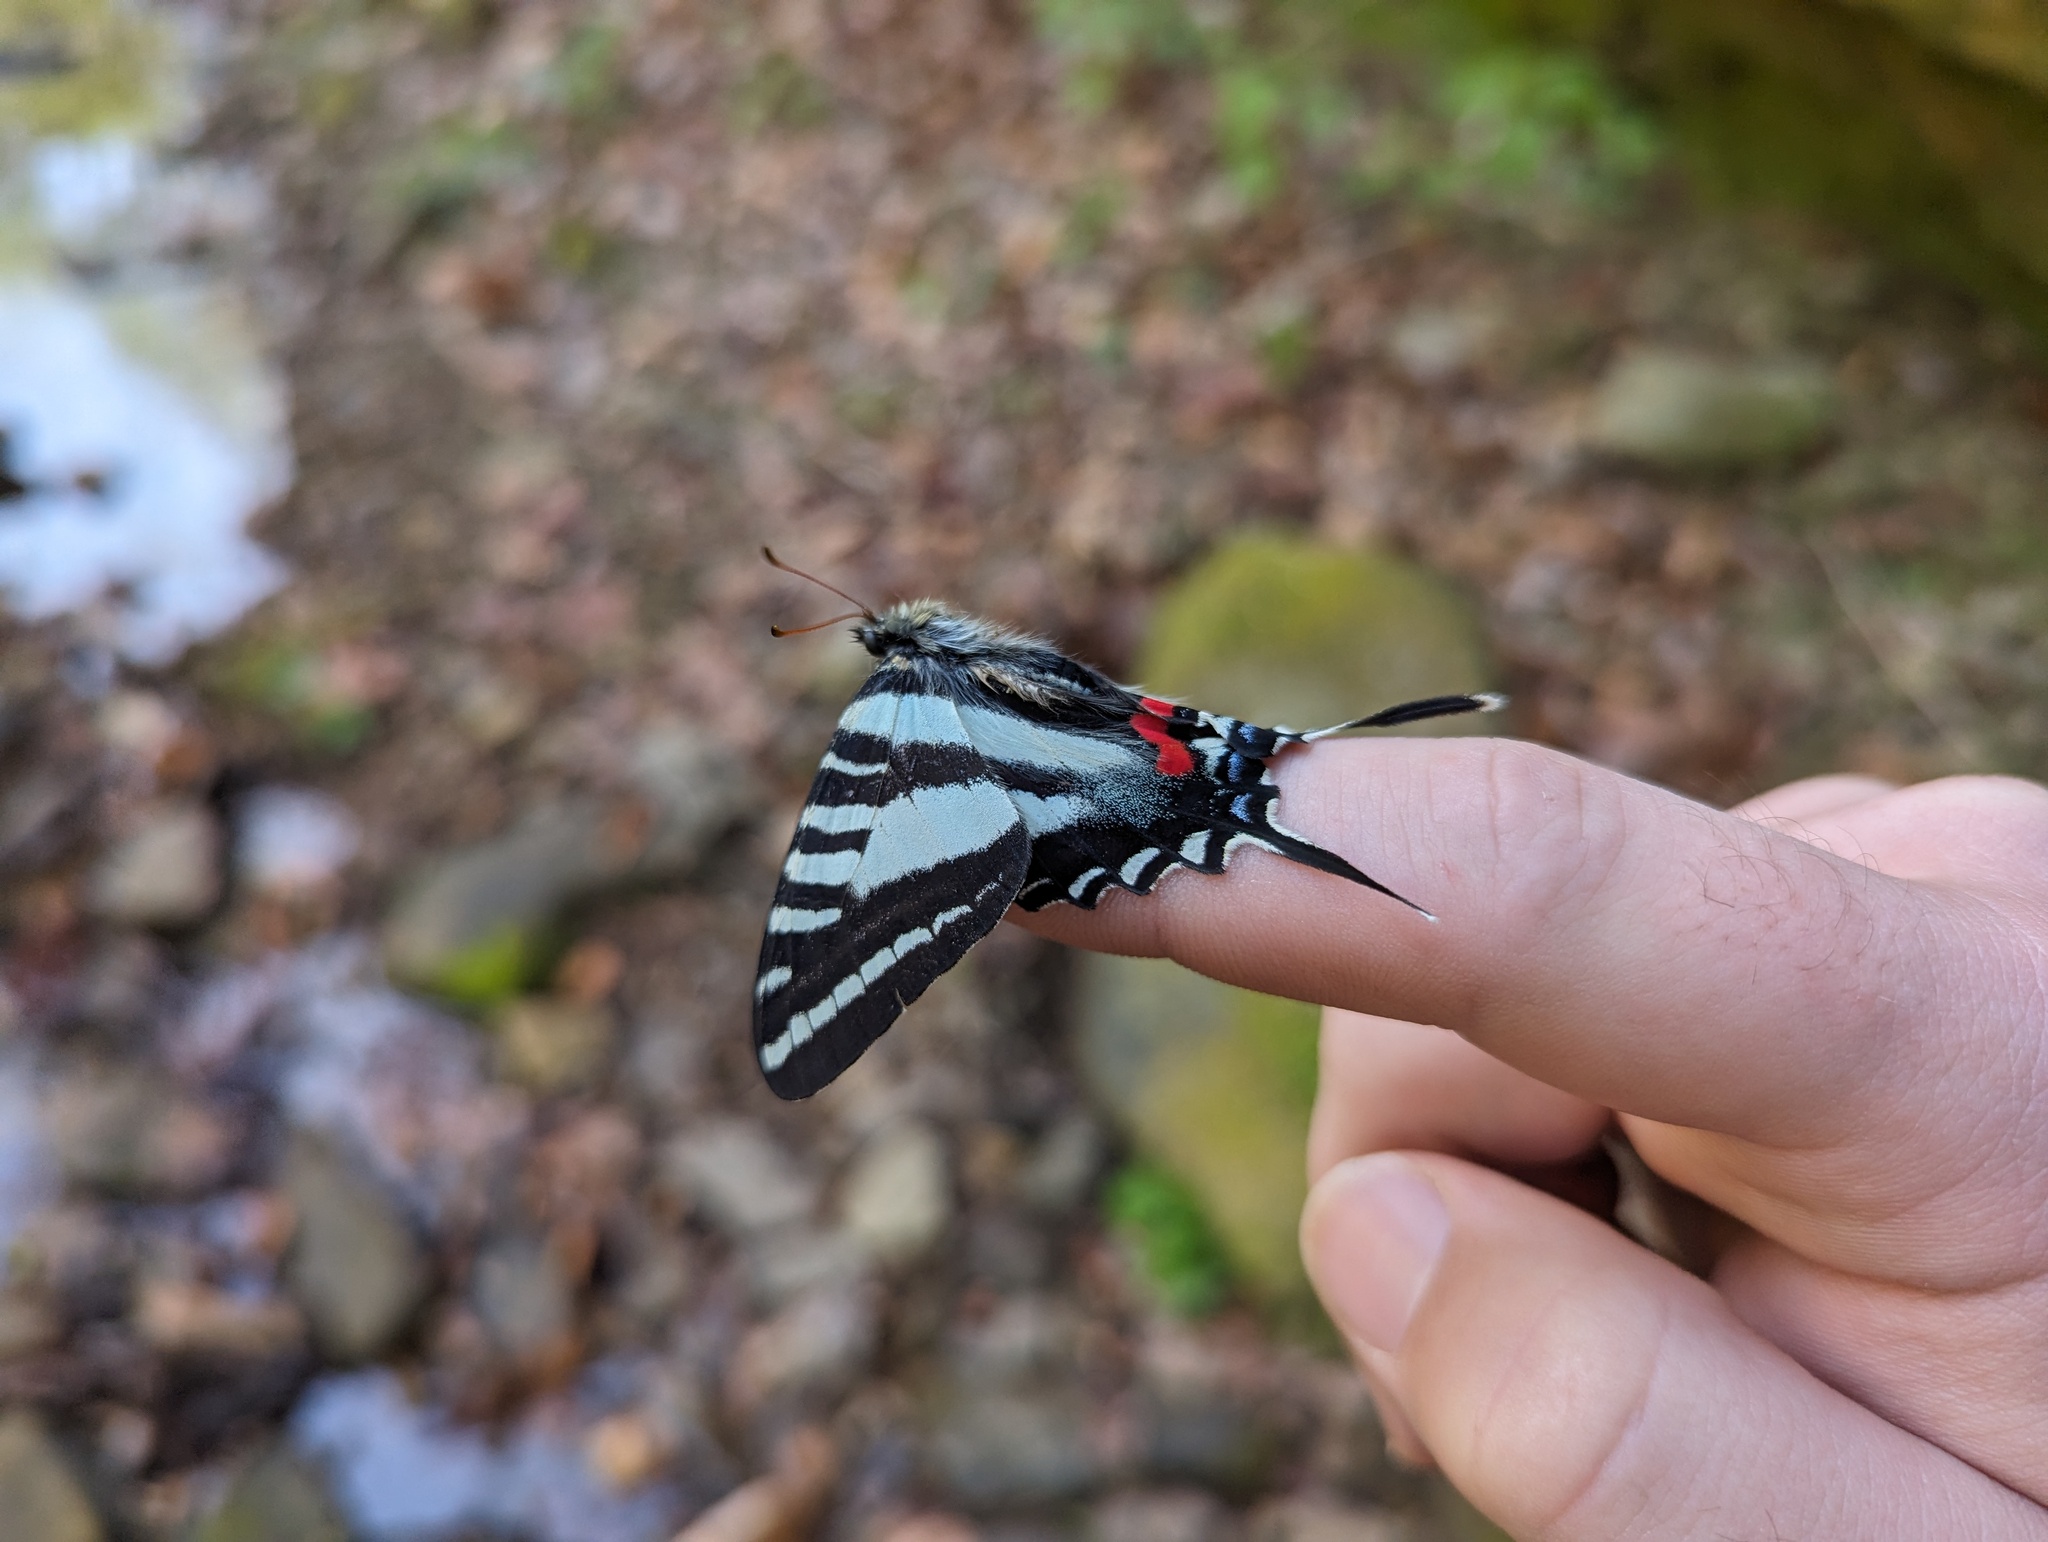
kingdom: Animalia
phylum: Arthropoda
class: Insecta
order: Lepidoptera
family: Papilionidae
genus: Protographium
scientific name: Protographium marcellus
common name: Zebra swallowtail
